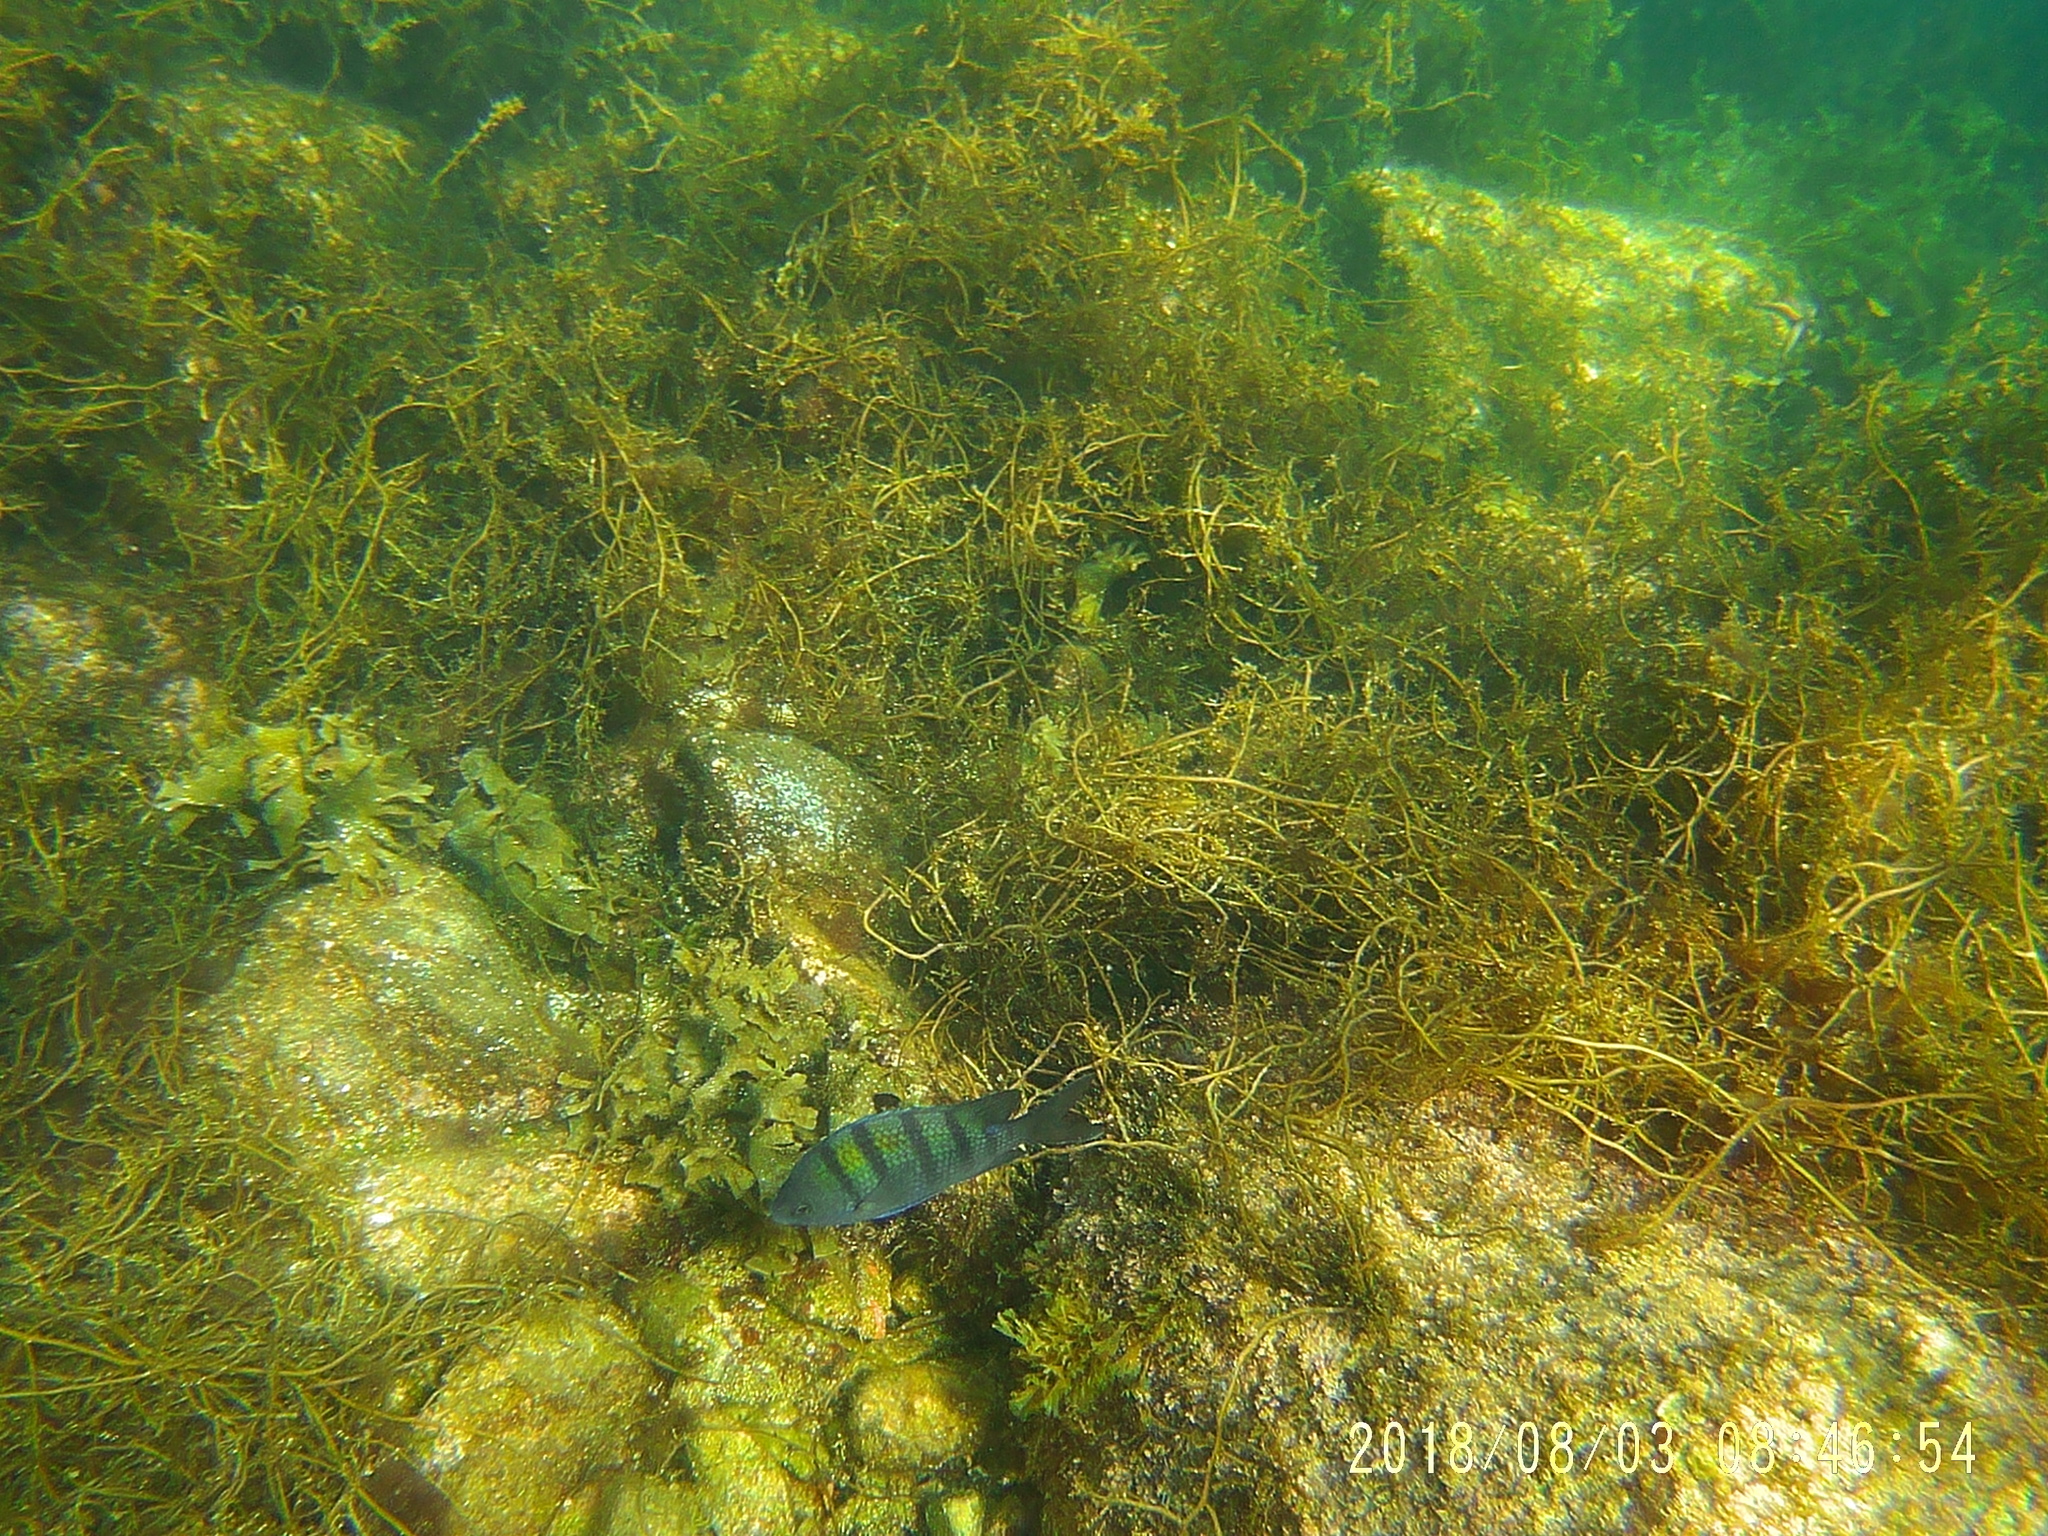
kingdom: Animalia
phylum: Chordata
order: Perciformes
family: Pomacentridae
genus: Abudefduf
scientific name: Abudefduf troschelii
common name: Panamic sergeant major
